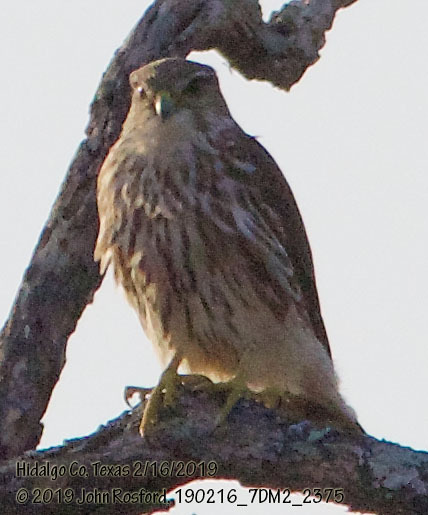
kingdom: Animalia
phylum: Chordata
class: Aves
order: Falconiformes
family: Falconidae
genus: Falco
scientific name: Falco columbarius
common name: Merlin
